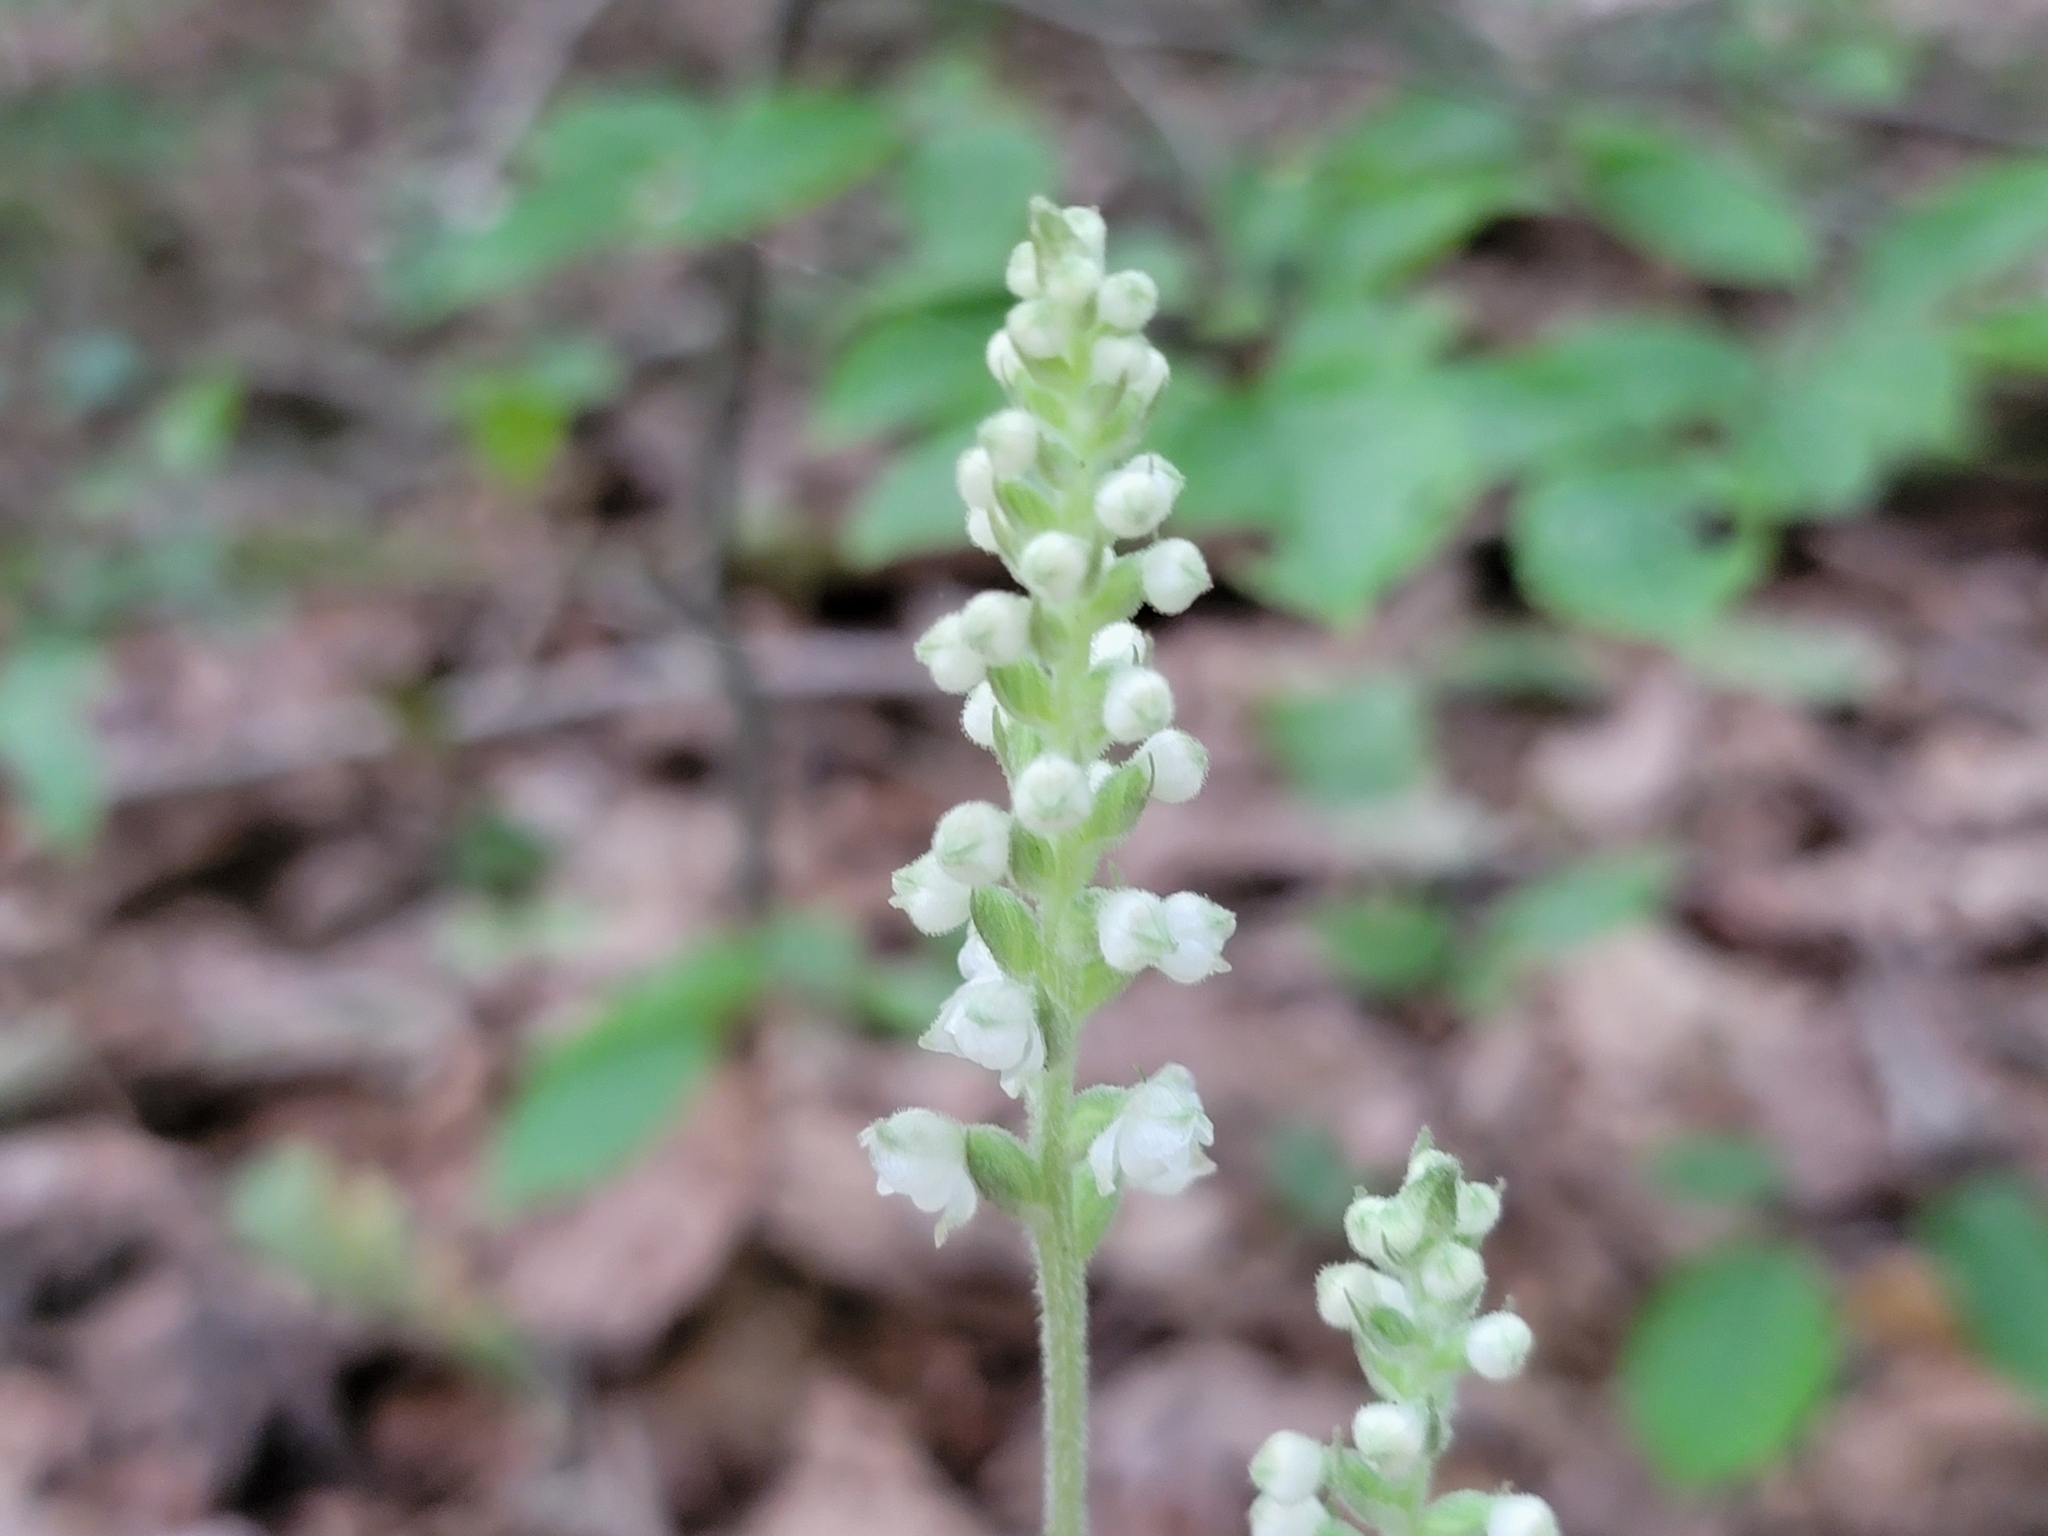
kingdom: Plantae
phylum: Tracheophyta
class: Liliopsida
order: Asparagales
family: Orchidaceae
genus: Goodyera
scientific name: Goodyera pubescens
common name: Downy rattlesnake-plantain
